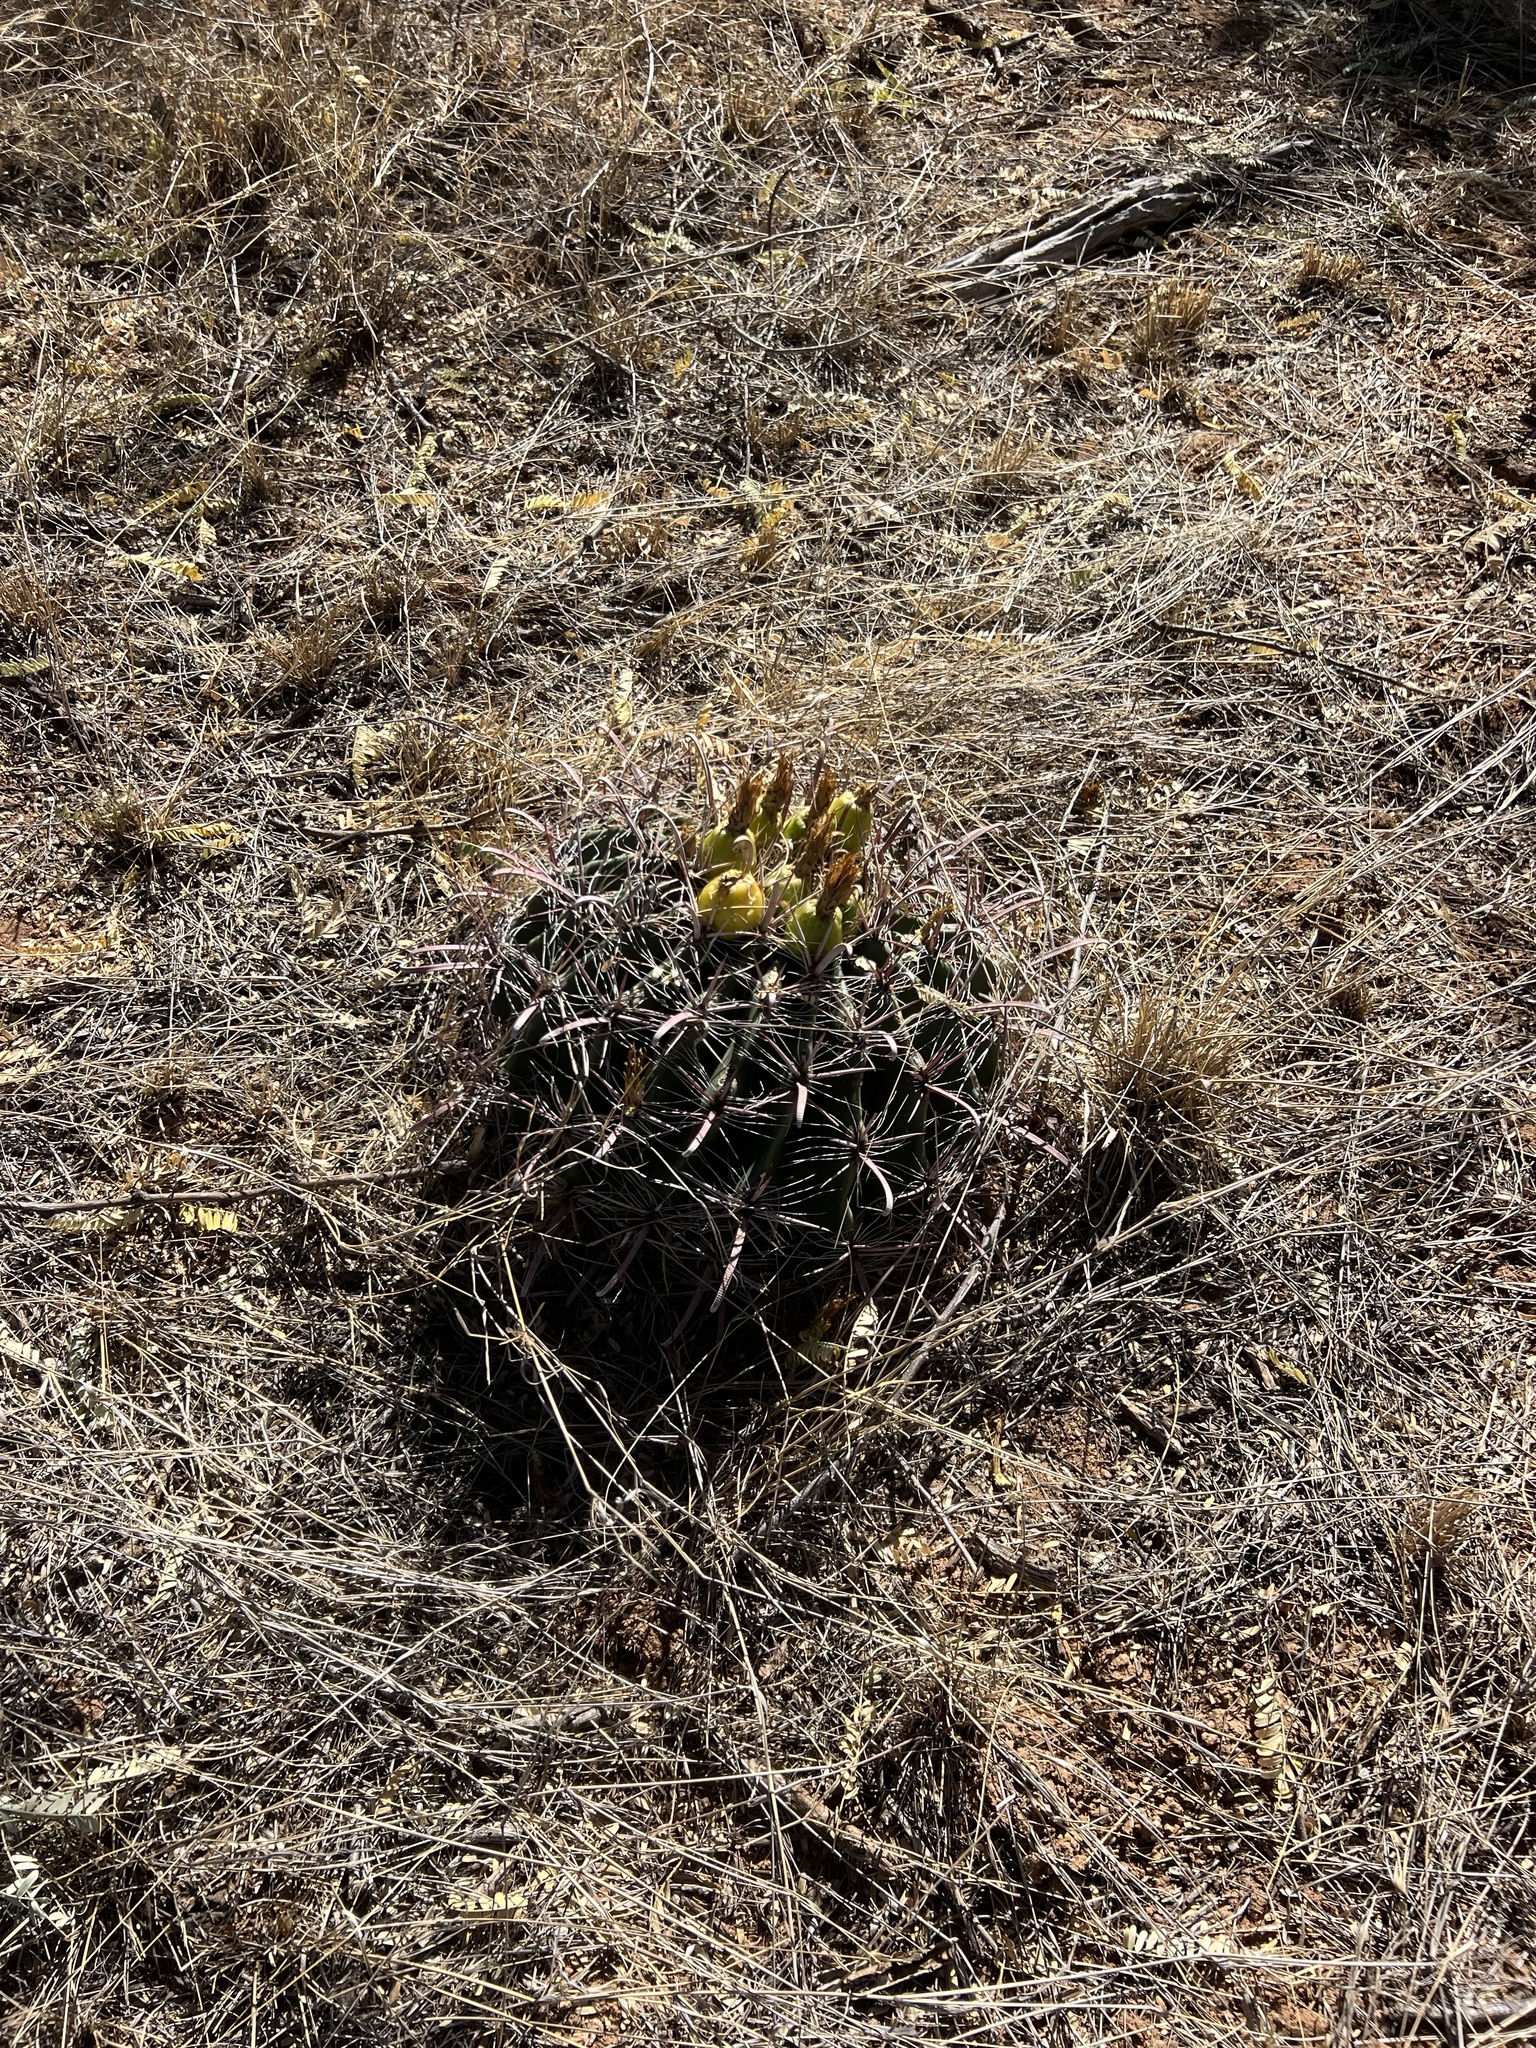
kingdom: Plantae
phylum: Tracheophyta
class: Magnoliopsida
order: Caryophyllales
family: Cactaceae
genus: Ferocactus
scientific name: Ferocactus wislizeni
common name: Candy barrel cactus
